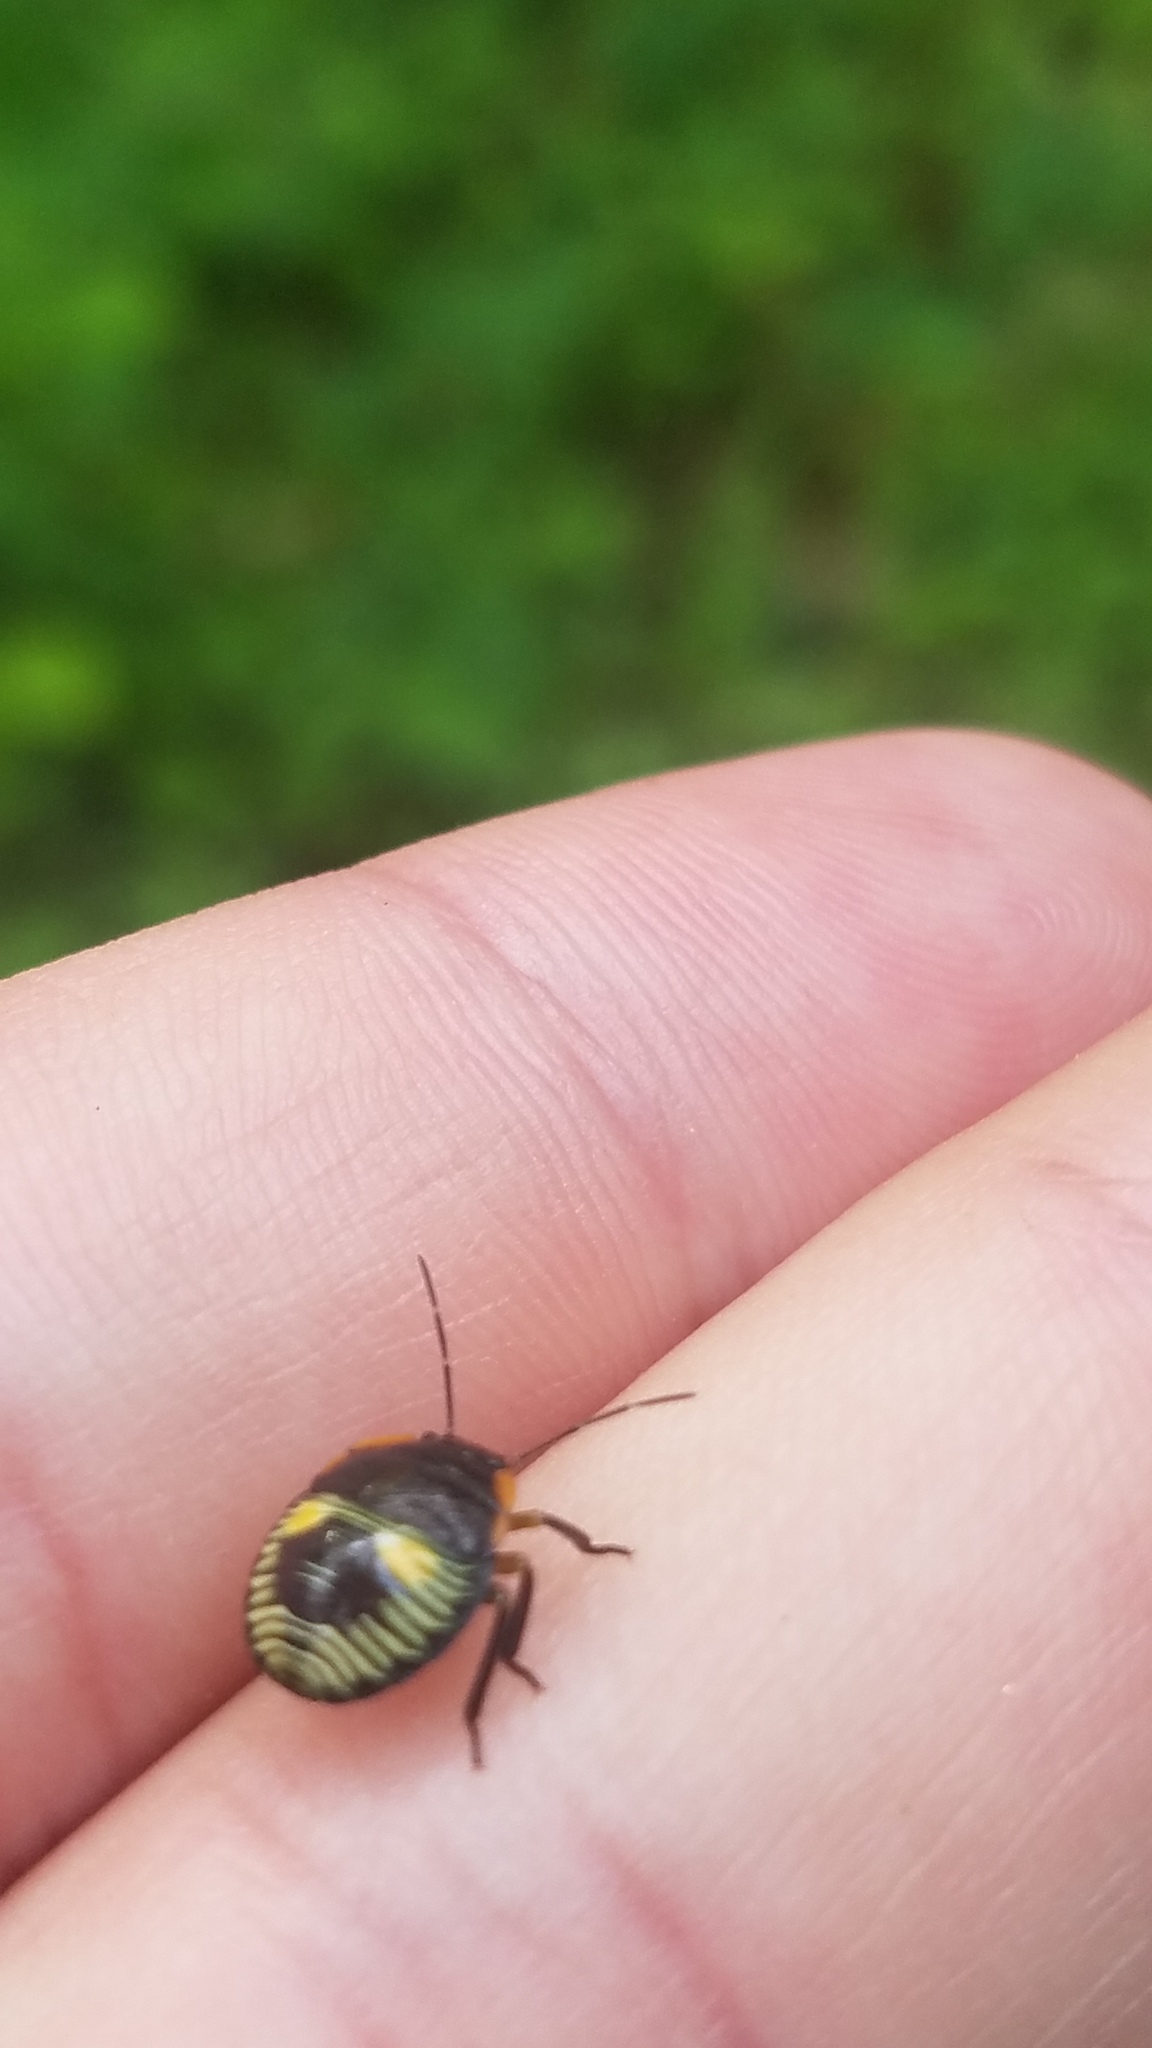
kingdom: Animalia
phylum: Arthropoda
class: Insecta
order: Hemiptera
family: Pentatomidae
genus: Chinavia
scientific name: Chinavia hilaris
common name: Green stink bug
